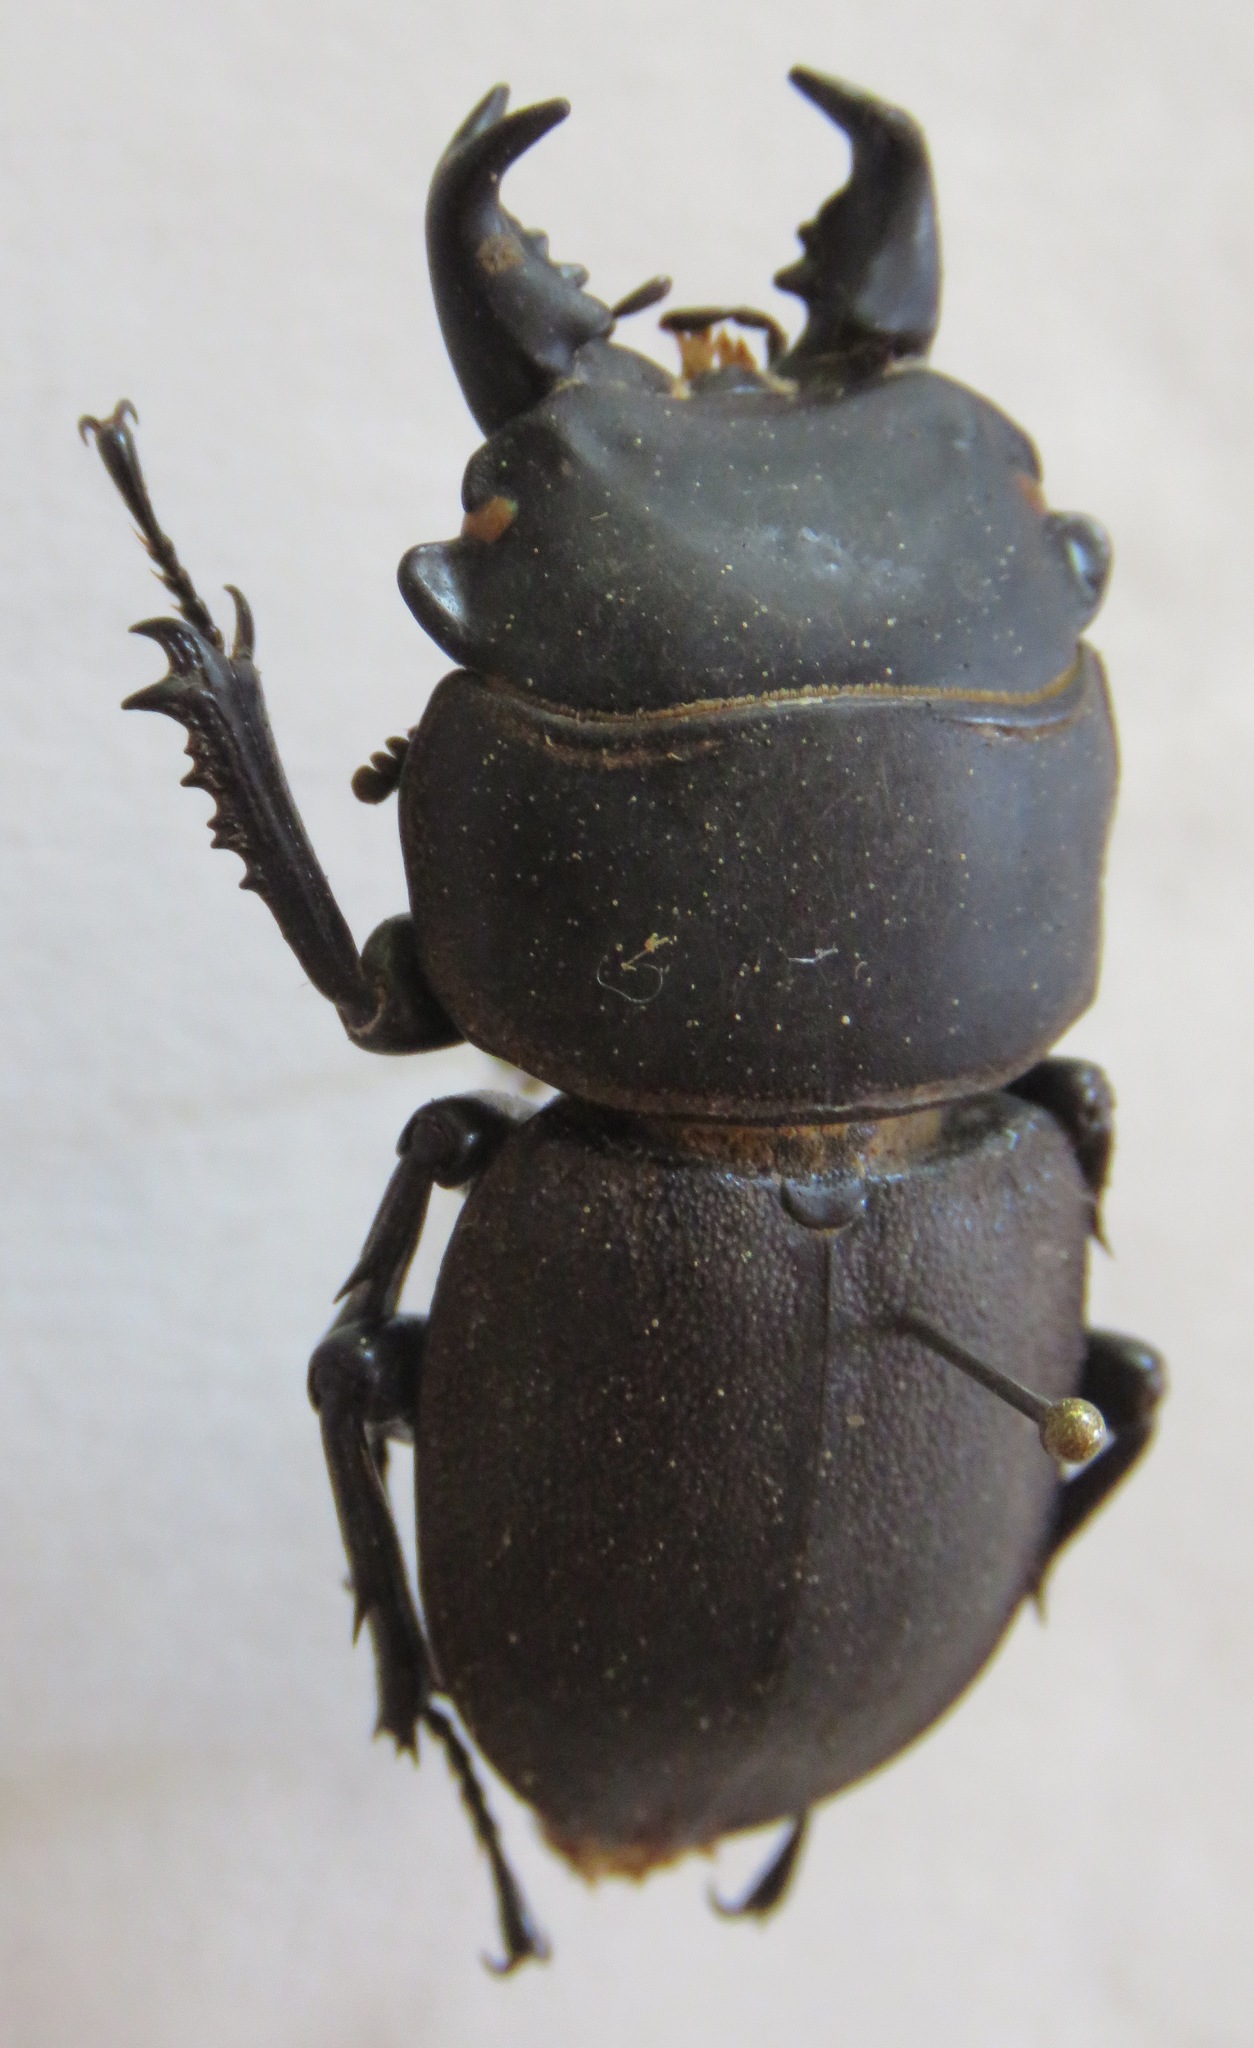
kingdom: Animalia
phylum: Arthropoda
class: Insecta
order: Coleoptera
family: Lucanidae
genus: Apterodorcus
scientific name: Apterodorcus bacchus
